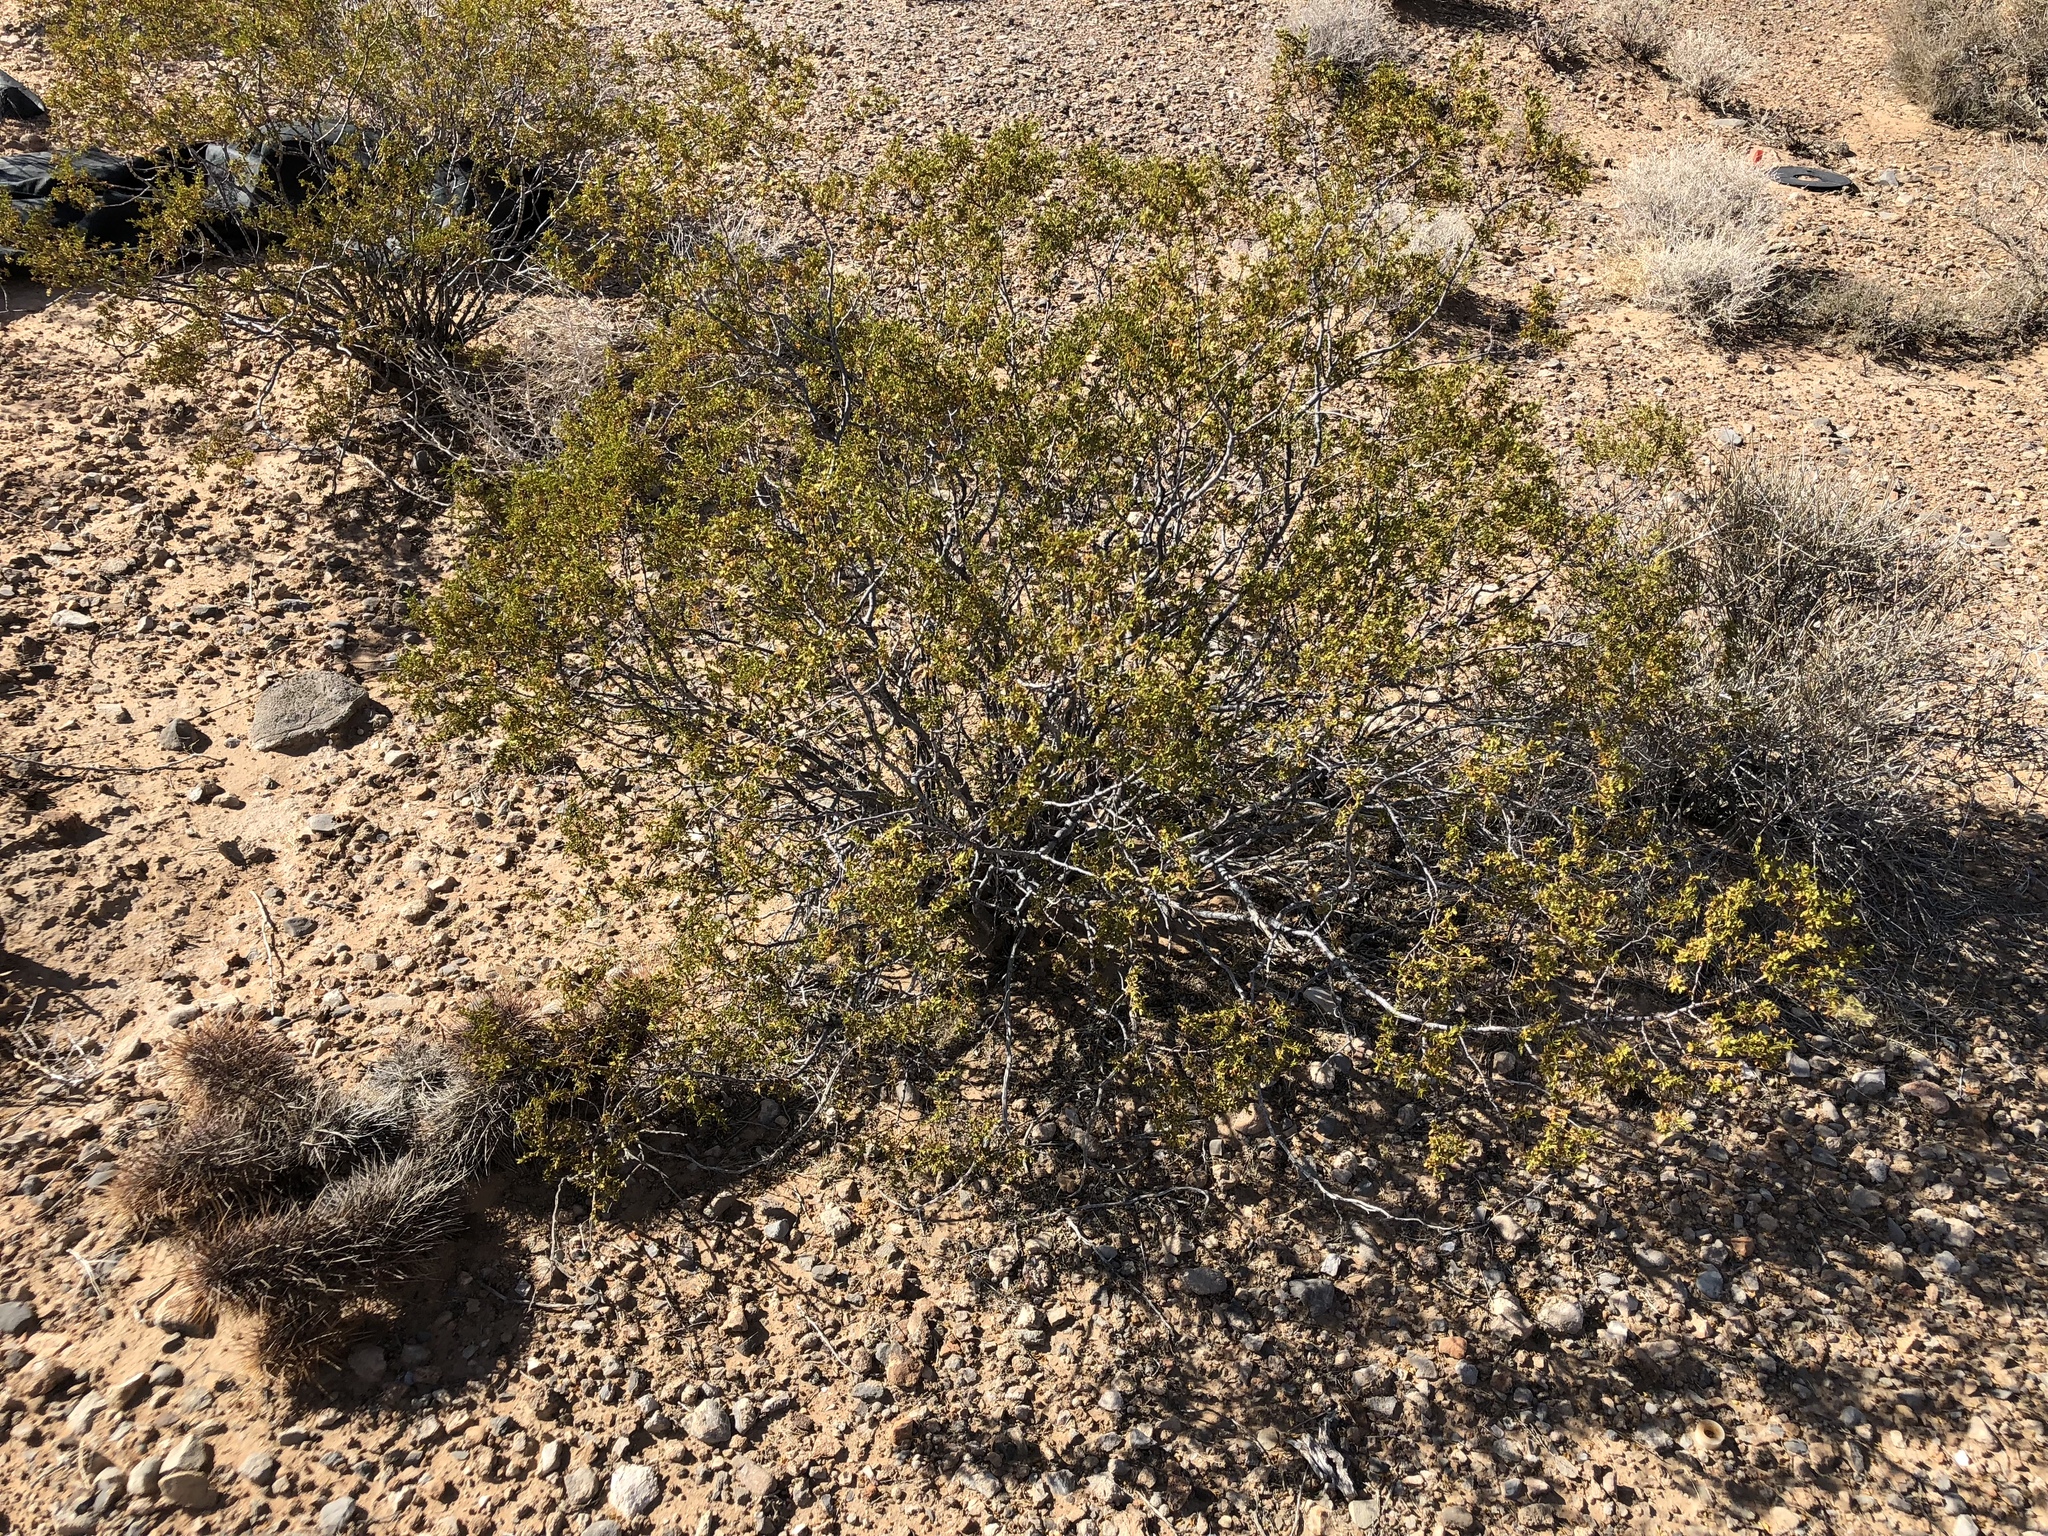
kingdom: Plantae
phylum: Tracheophyta
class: Magnoliopsida
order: Zygophyllales
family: Zygophyllaceae
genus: Larrea
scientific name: Larrea tridentata
